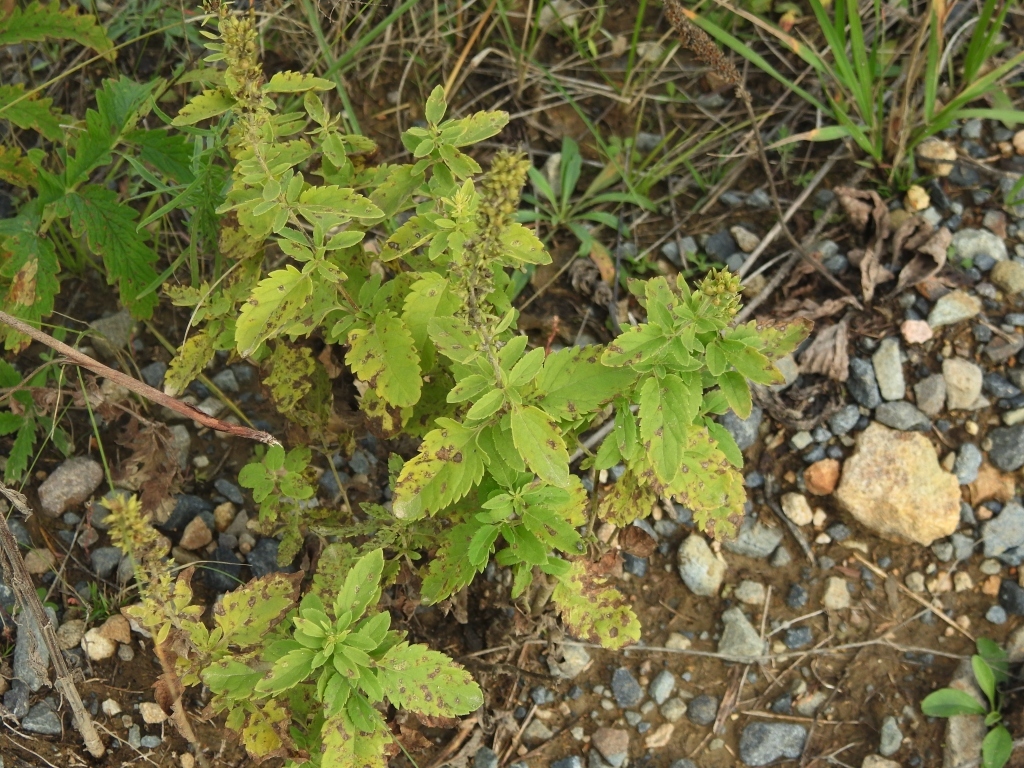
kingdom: Plantae
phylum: Tracheophyta
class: Magnoliopsida
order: Lamiales
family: Plantaginaceae
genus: Veronica
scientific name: Veronica daurica
